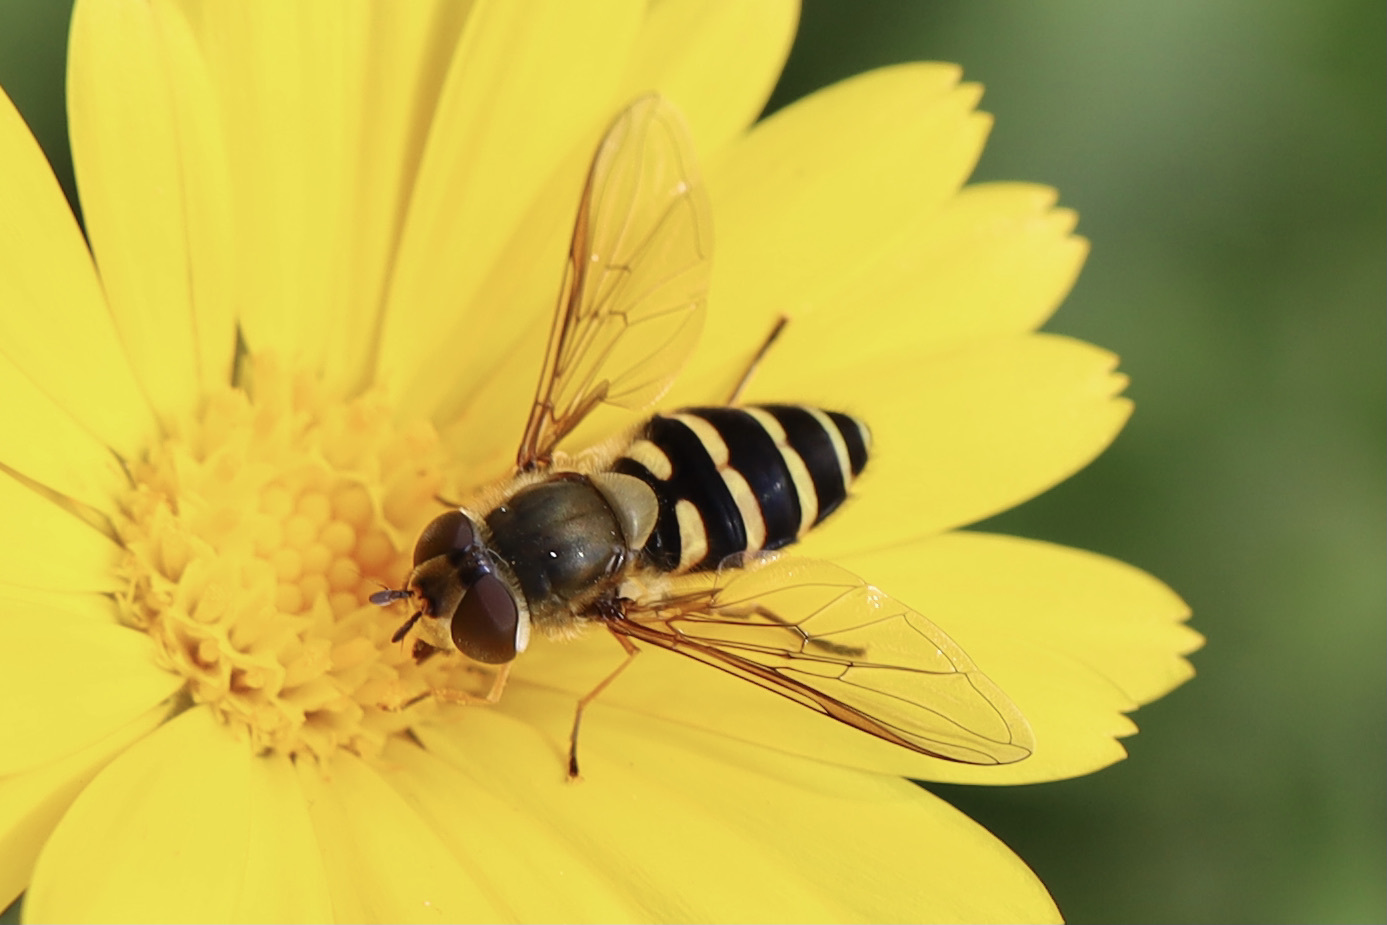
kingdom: Animalia
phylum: Arthropoda
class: Insecta
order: Diptera
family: Syrphidae
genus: Syrphus
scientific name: Syrphus
